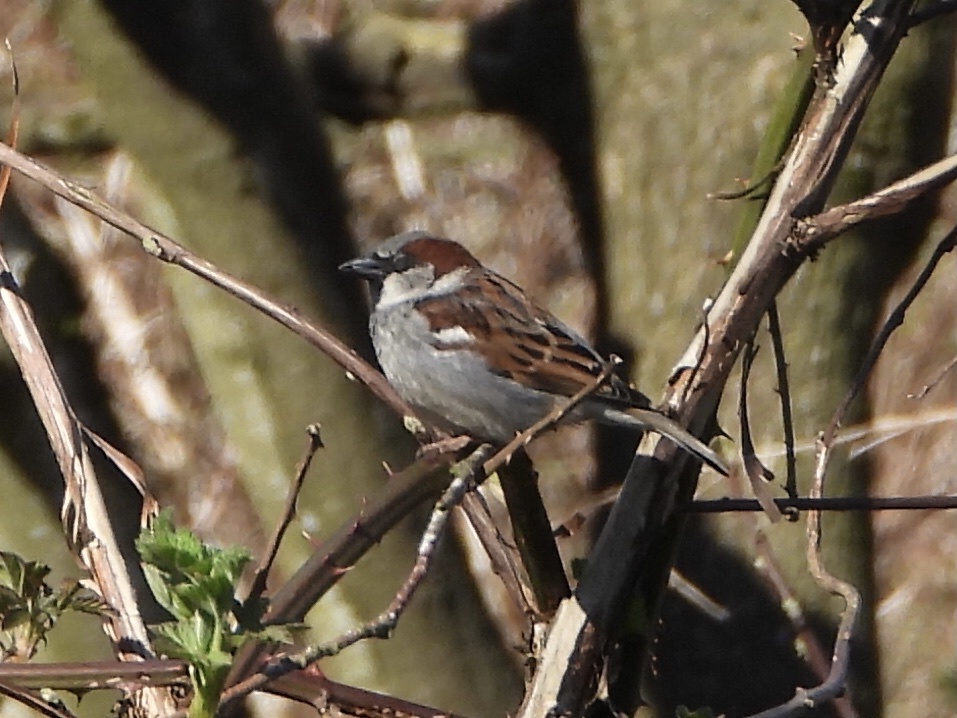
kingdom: Animalia
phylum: Chordata
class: Aves
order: Passeriformes
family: Passeridae
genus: Passer
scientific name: Passer domesticus
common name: House sparrow
